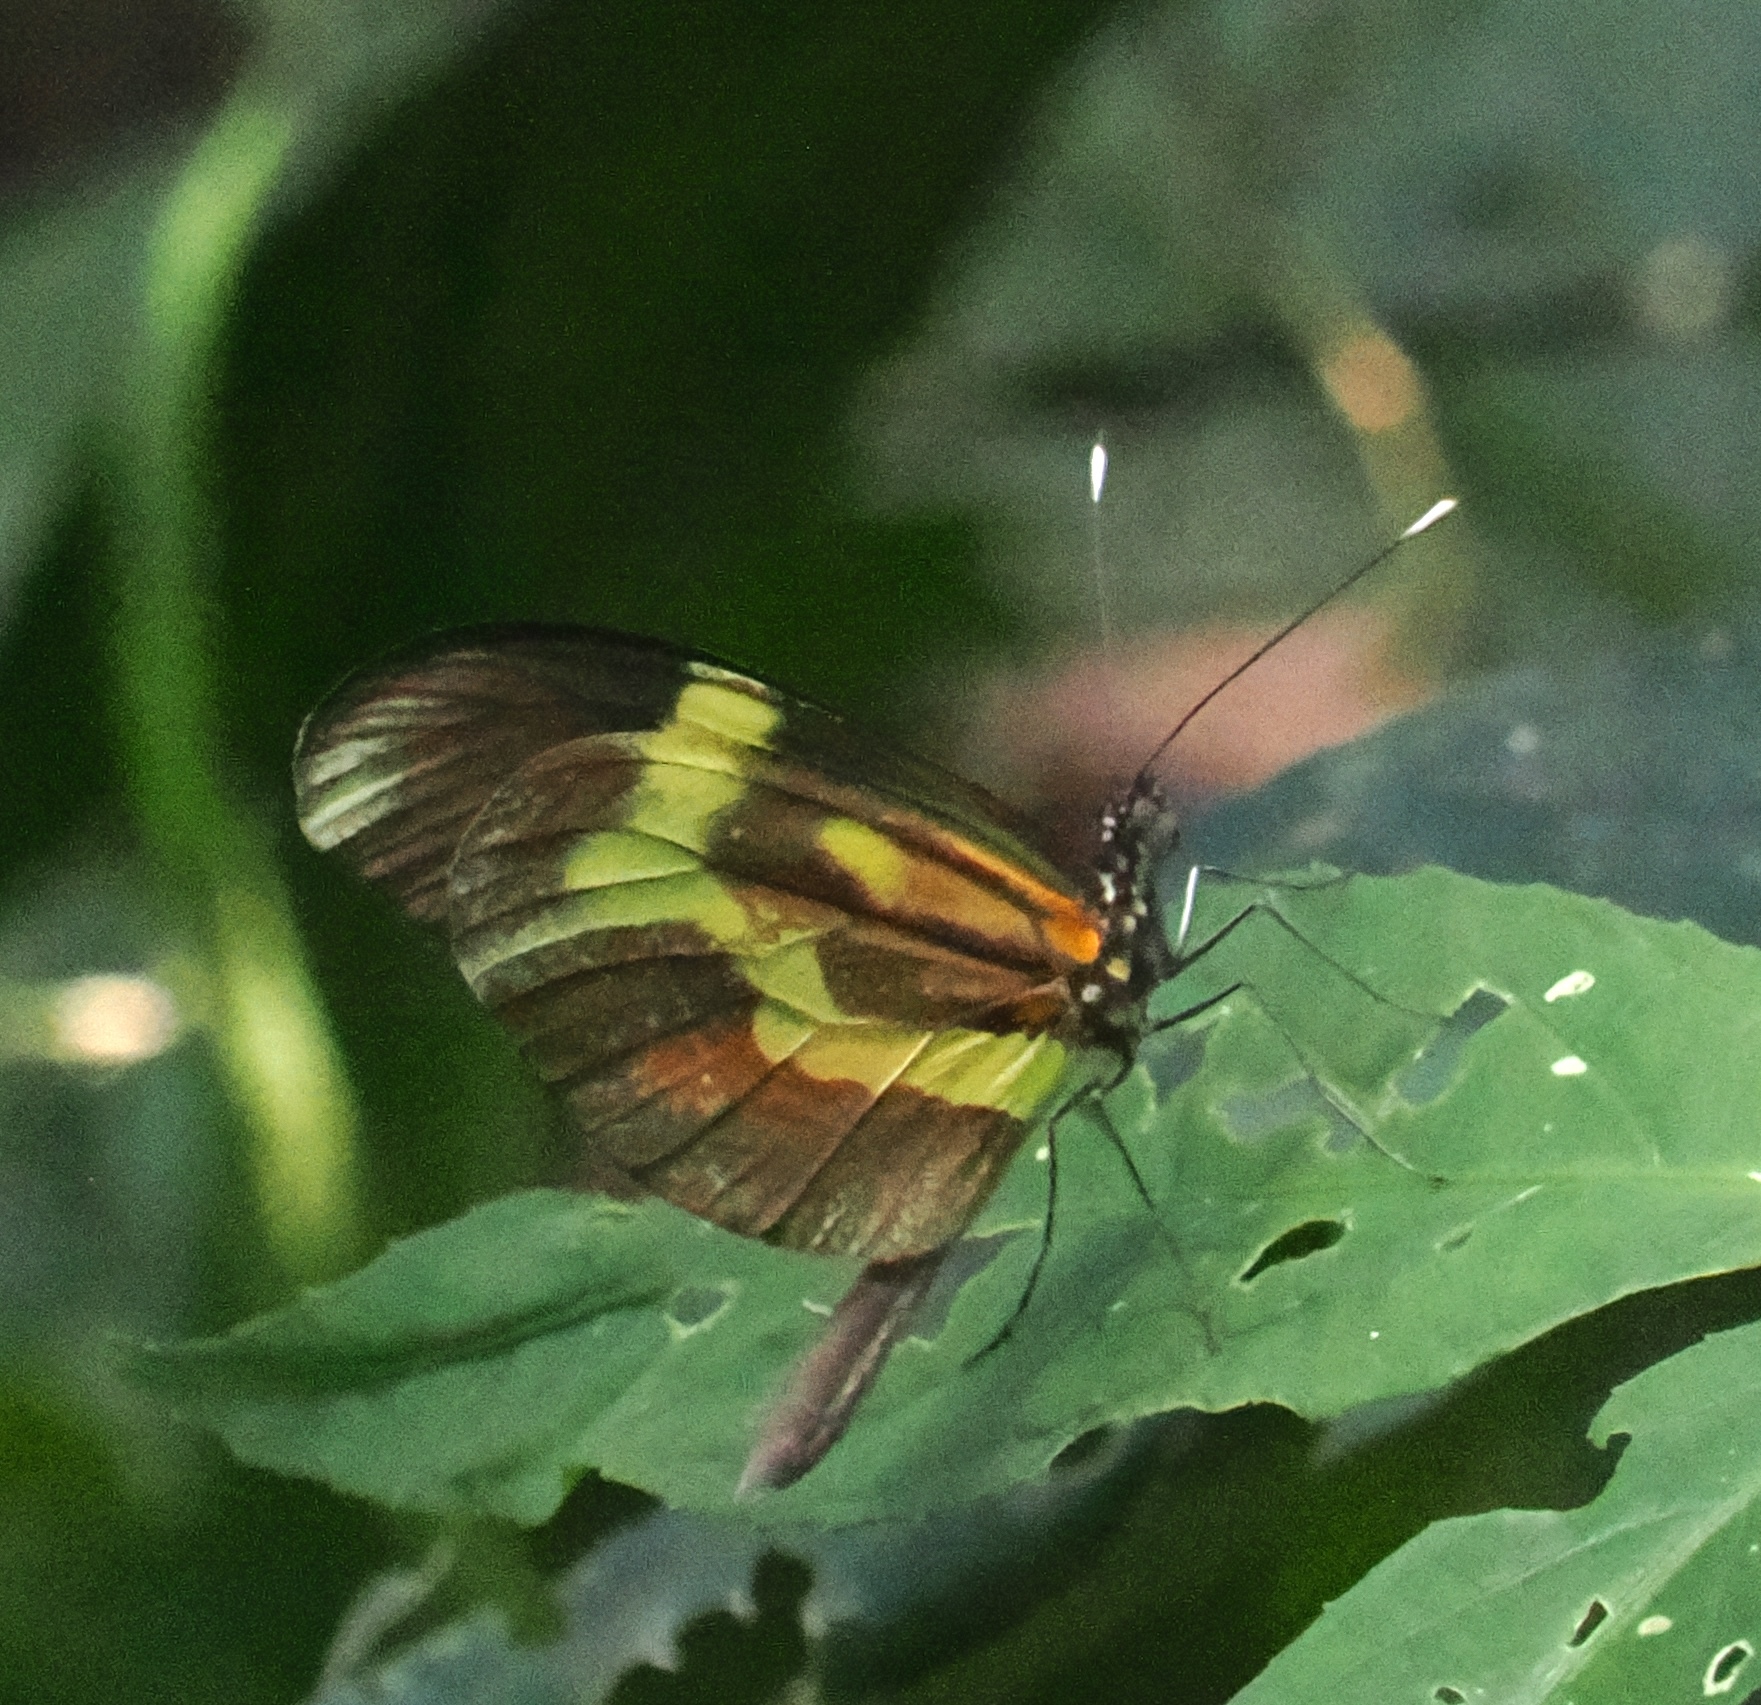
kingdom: Animalia
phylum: Arthropoda
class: Insecta
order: Lepidoptera
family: Pieridae
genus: Dismorphia
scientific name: Dismorphia astyocha
